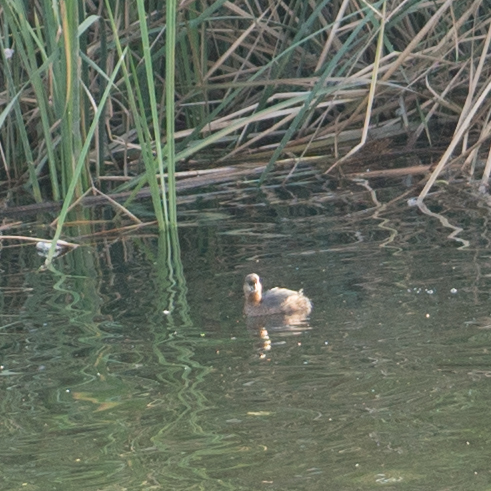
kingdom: Animalia
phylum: Chordata
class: Aves
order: Podicipediformes
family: Podicipedidae
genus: Podilymbus
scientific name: Podilymbus podiceps
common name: Pied-billed grebe
